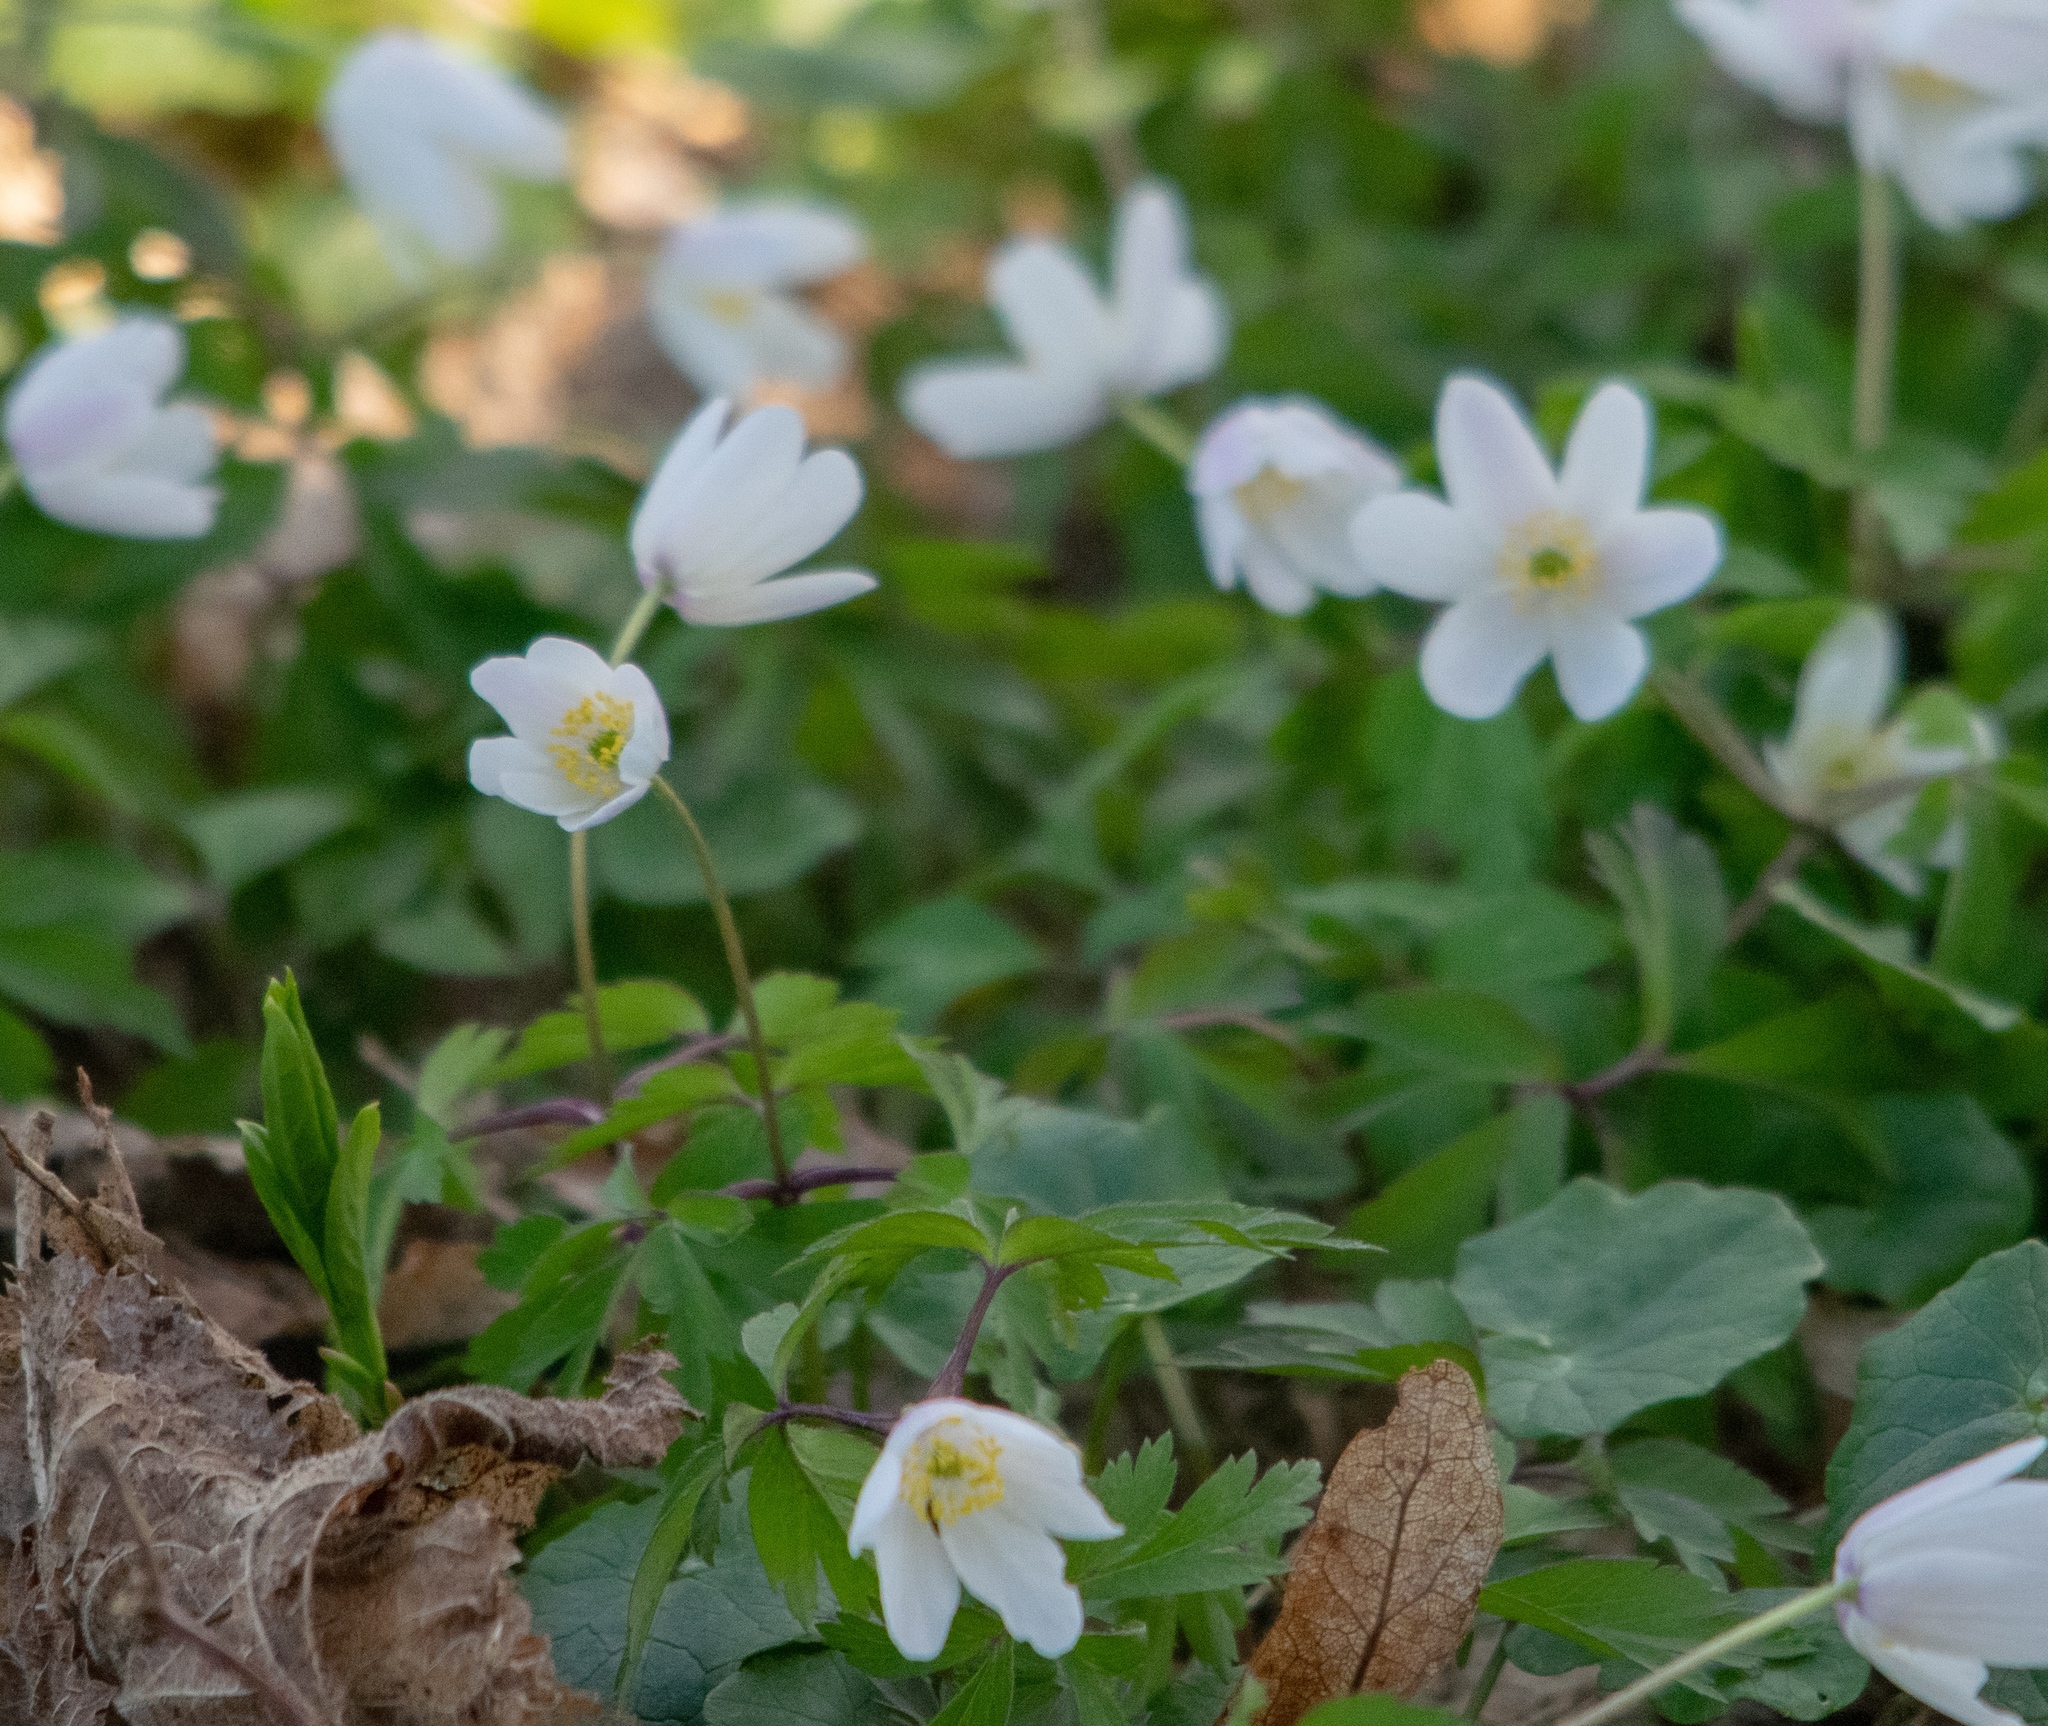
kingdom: Plantae
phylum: Tracheophyta
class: Magnoliopsida
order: Ranunculales
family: Ranunculaceae
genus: Anemone
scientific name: Anemone nemorosa
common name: Wood anemone
